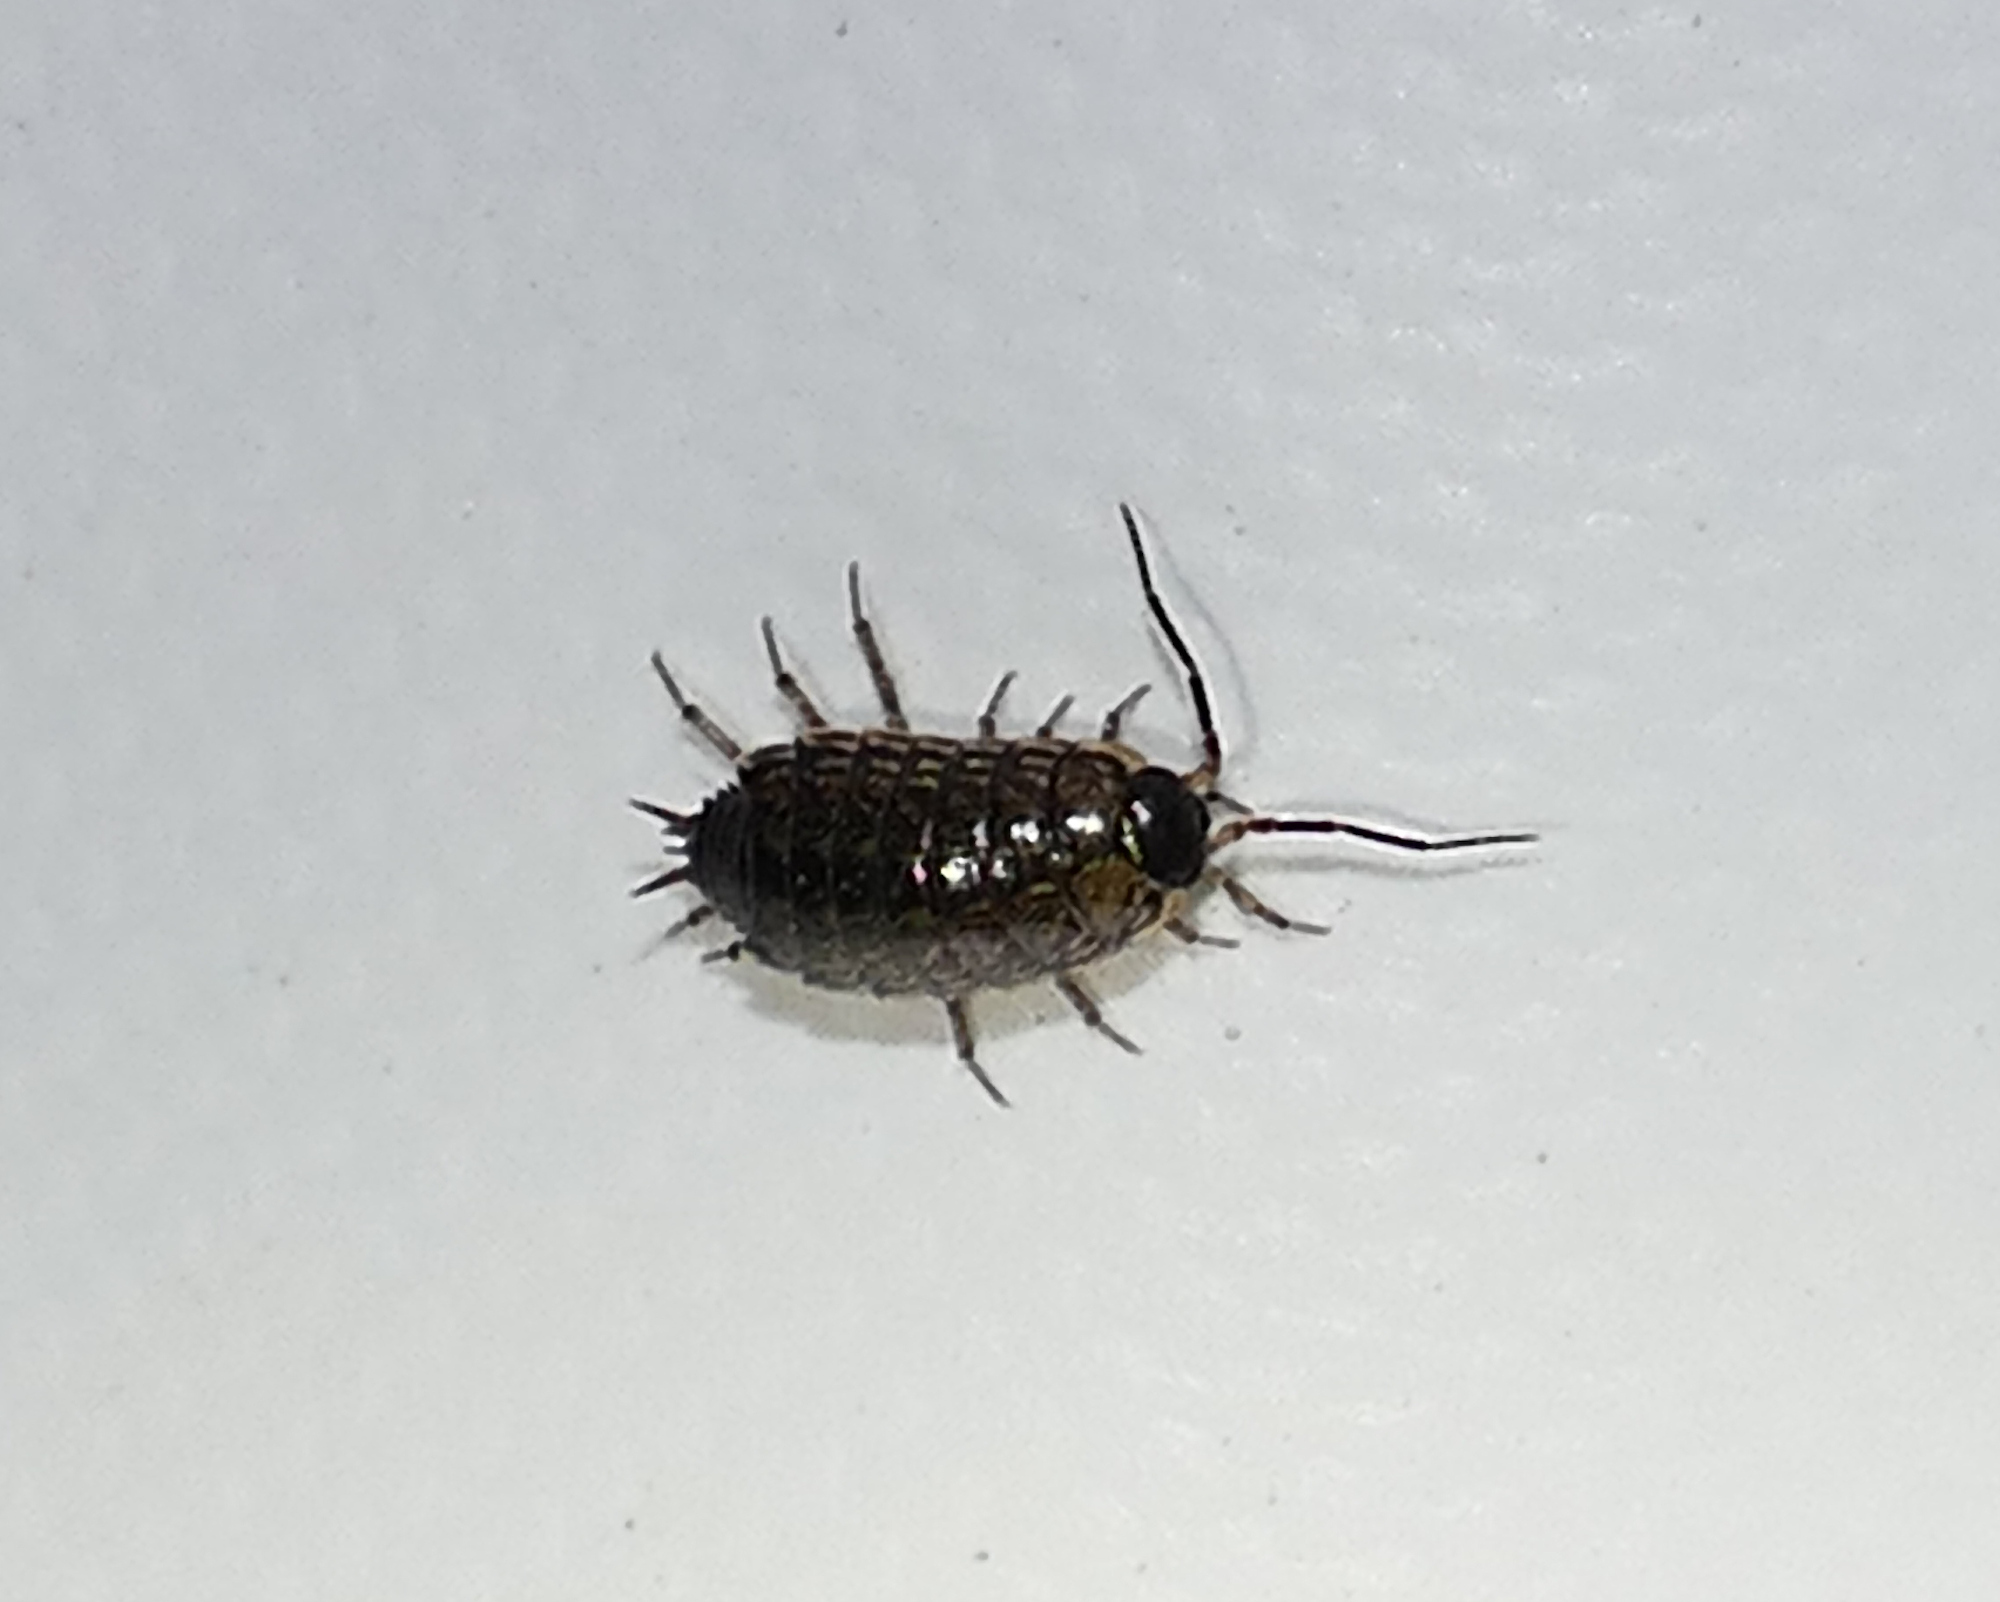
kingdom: Animalia
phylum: Arthropoda
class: Malacostraca
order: Isopoda
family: Philosciidae
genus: Philoscia
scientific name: Philoscia muscorum
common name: Common striped woodlouse
